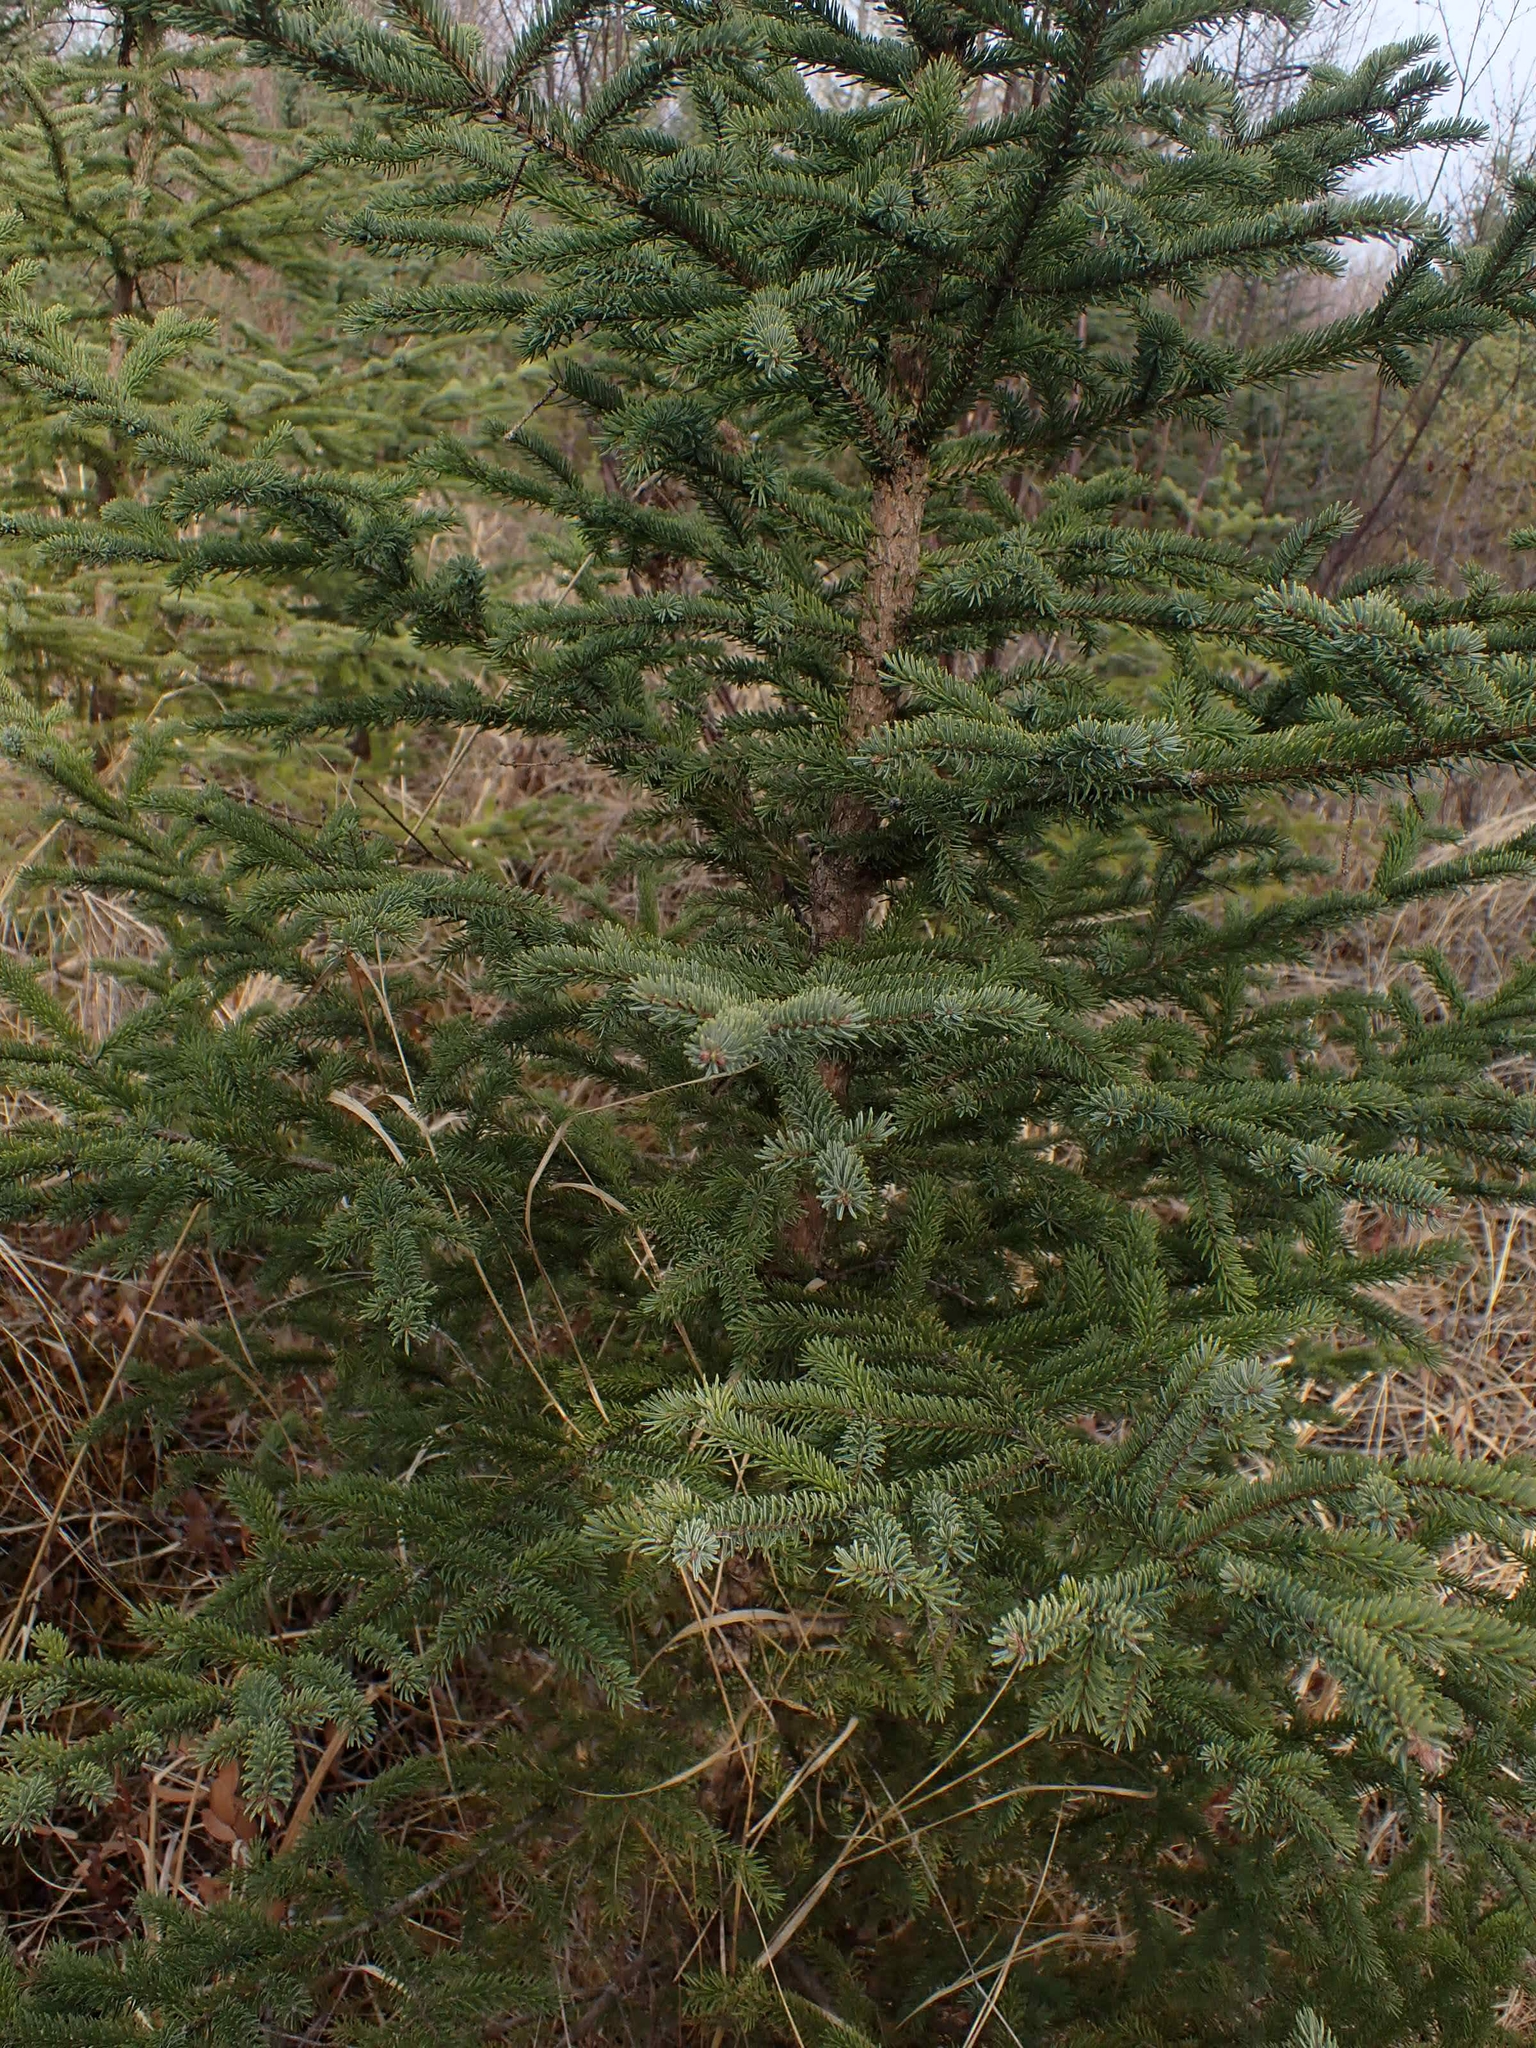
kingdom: Plantae
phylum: Tracheophyta
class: Pinopsida
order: Pinales
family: Pinaceae
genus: Picea
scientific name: Picea mariana
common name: Black spruce
